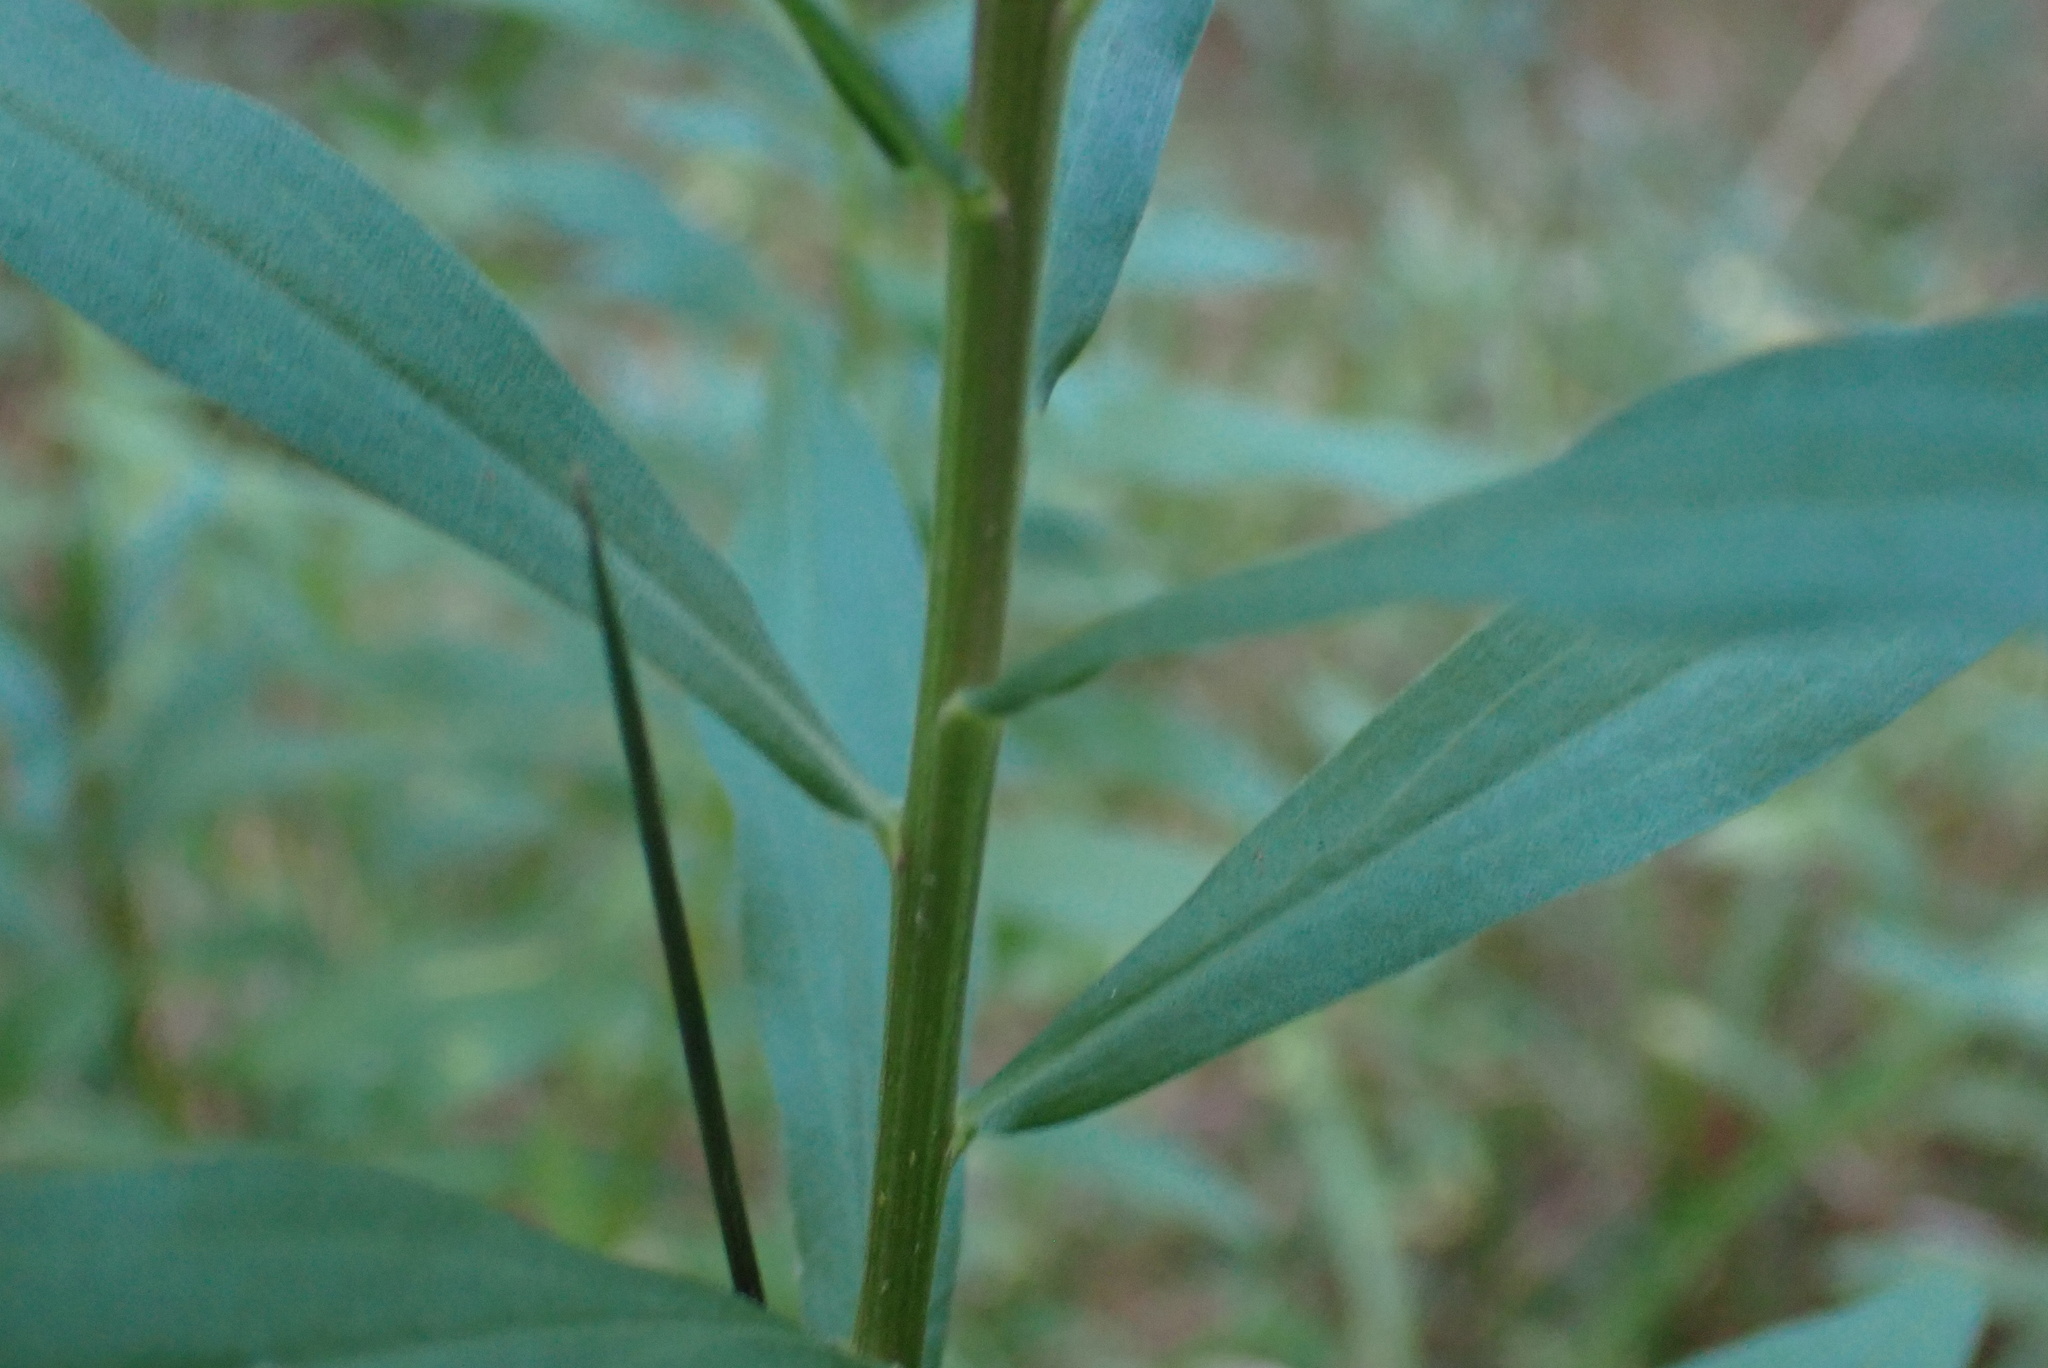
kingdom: Plantae
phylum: Tracheophyta
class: Magnoliopsida
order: Asterales
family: Asteraceae
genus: Euthamia
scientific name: Euthamia scabra
